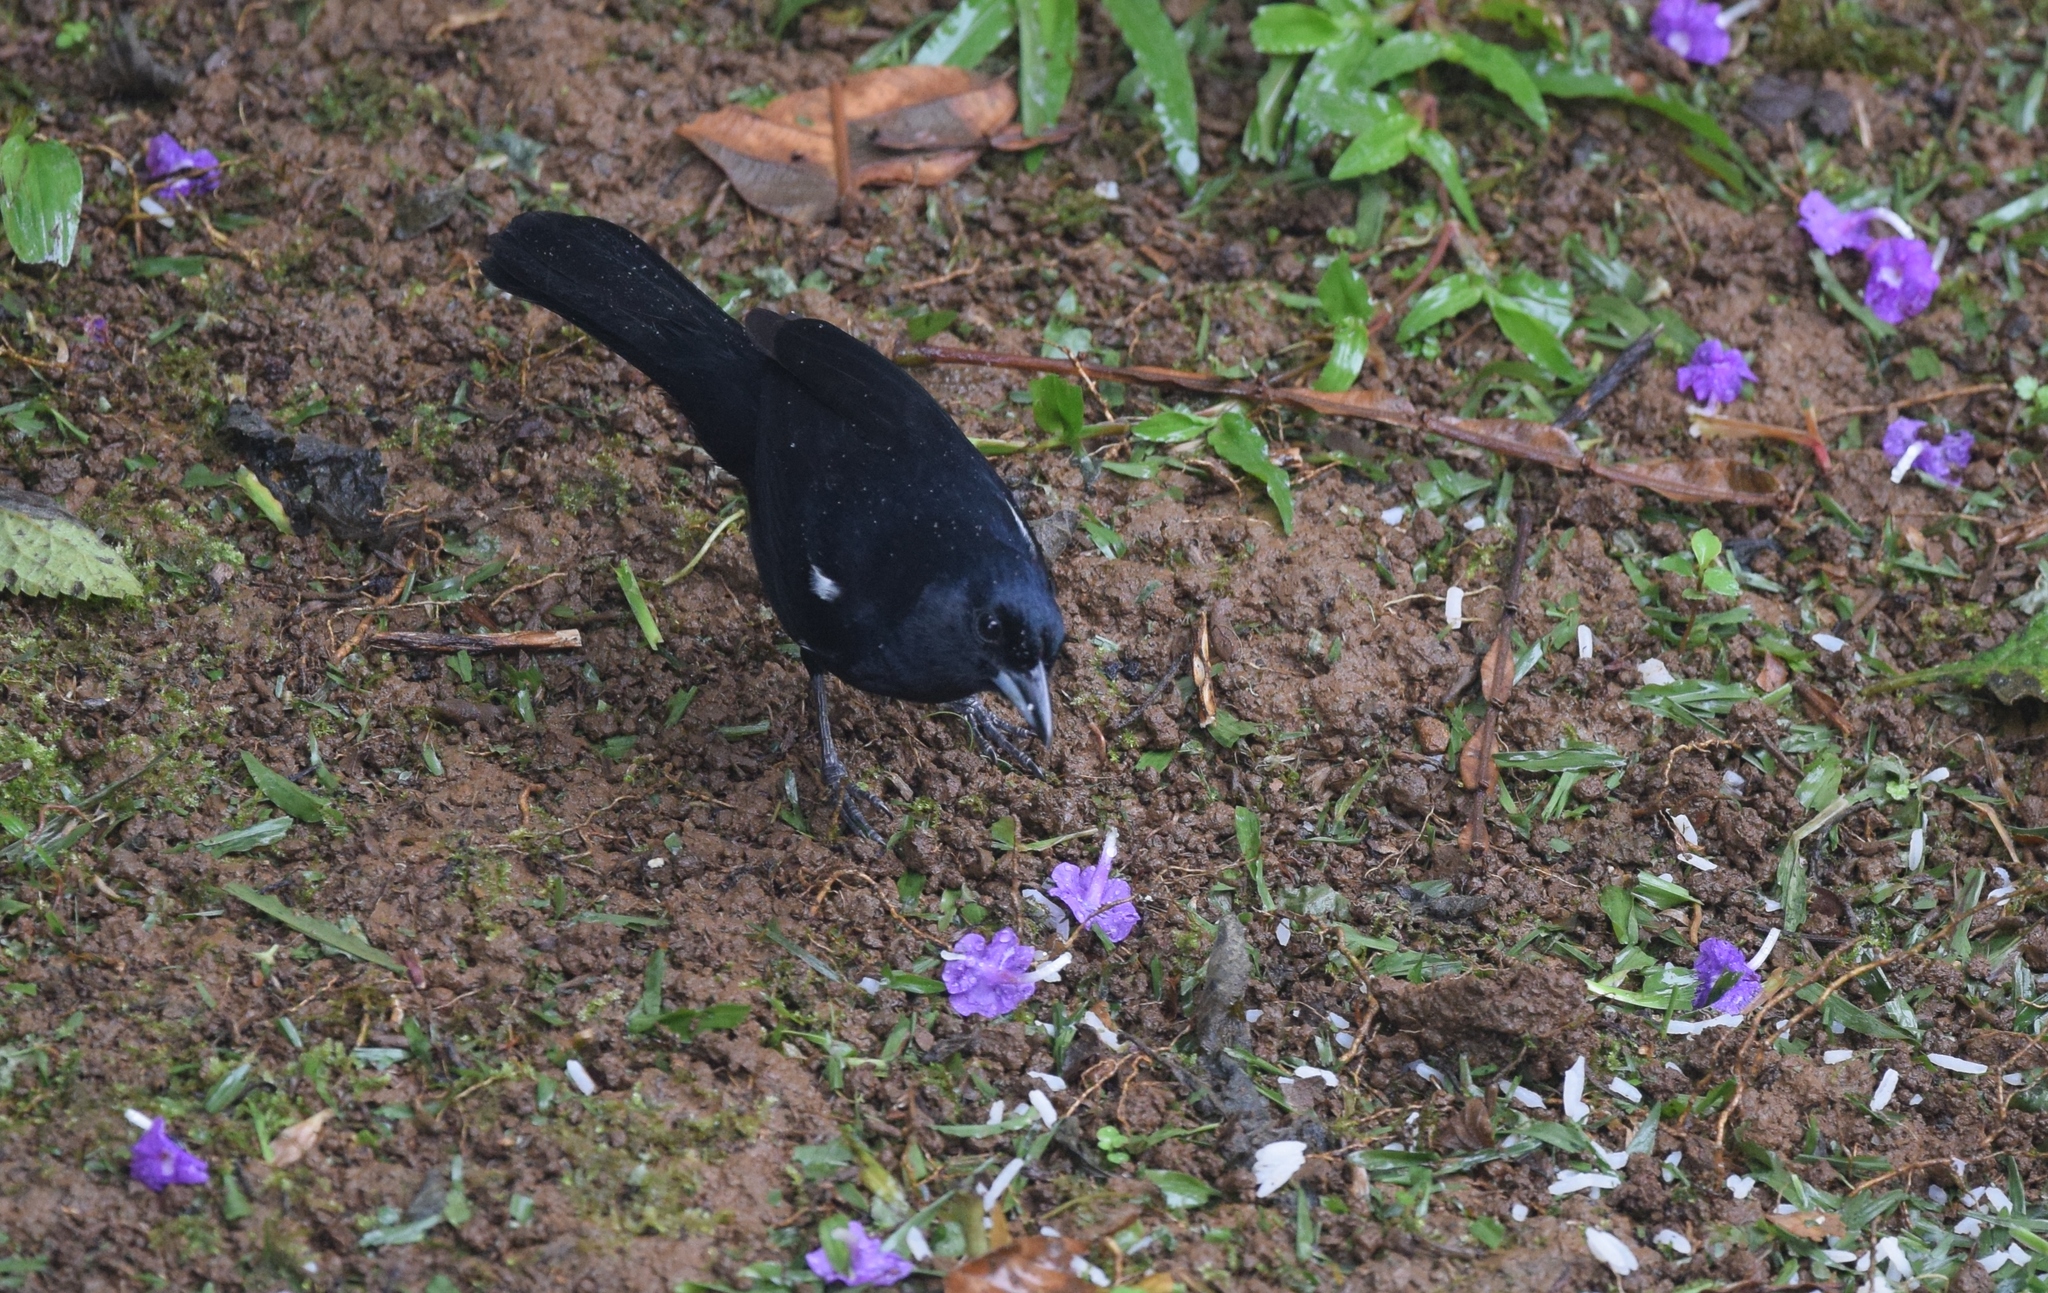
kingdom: Animalia
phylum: Chordata
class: Aves
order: Passeriformes
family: Thraupidae
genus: Tachyphonus
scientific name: Tachyphonus rufus
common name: White-lined tanager
